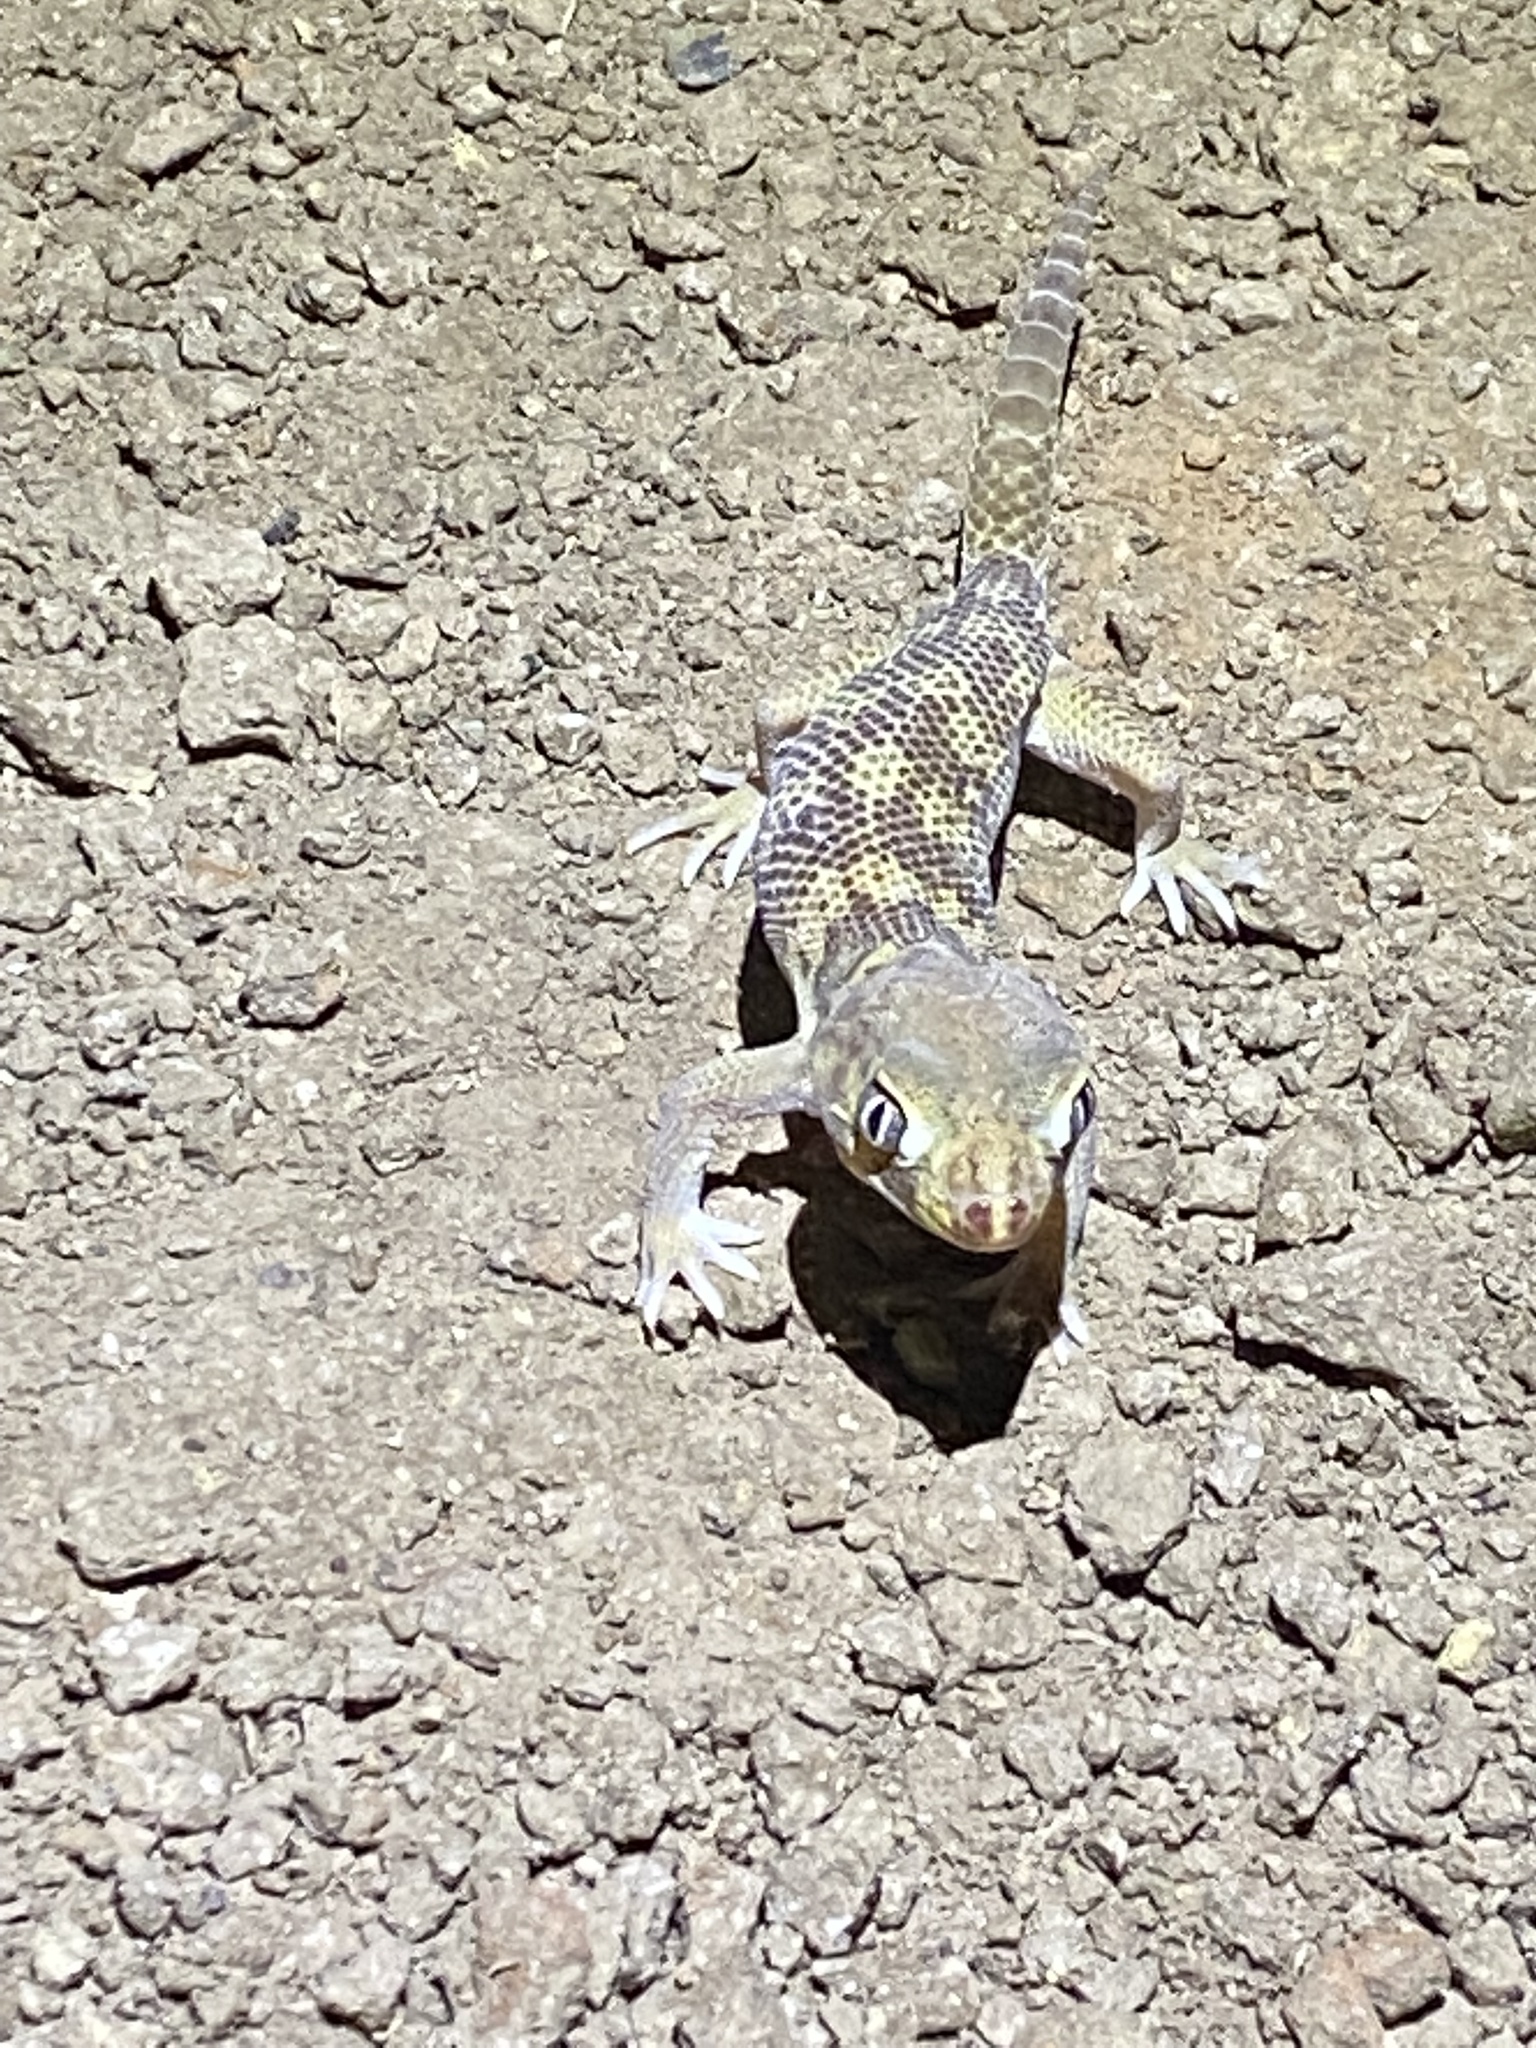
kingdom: Animalia
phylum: Chordata
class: Squamata
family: Sphaerodactylidae
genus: Teratoscincus
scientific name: Teratoscincus bedriagai
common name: Bedriaga's plate-tailed gecko
